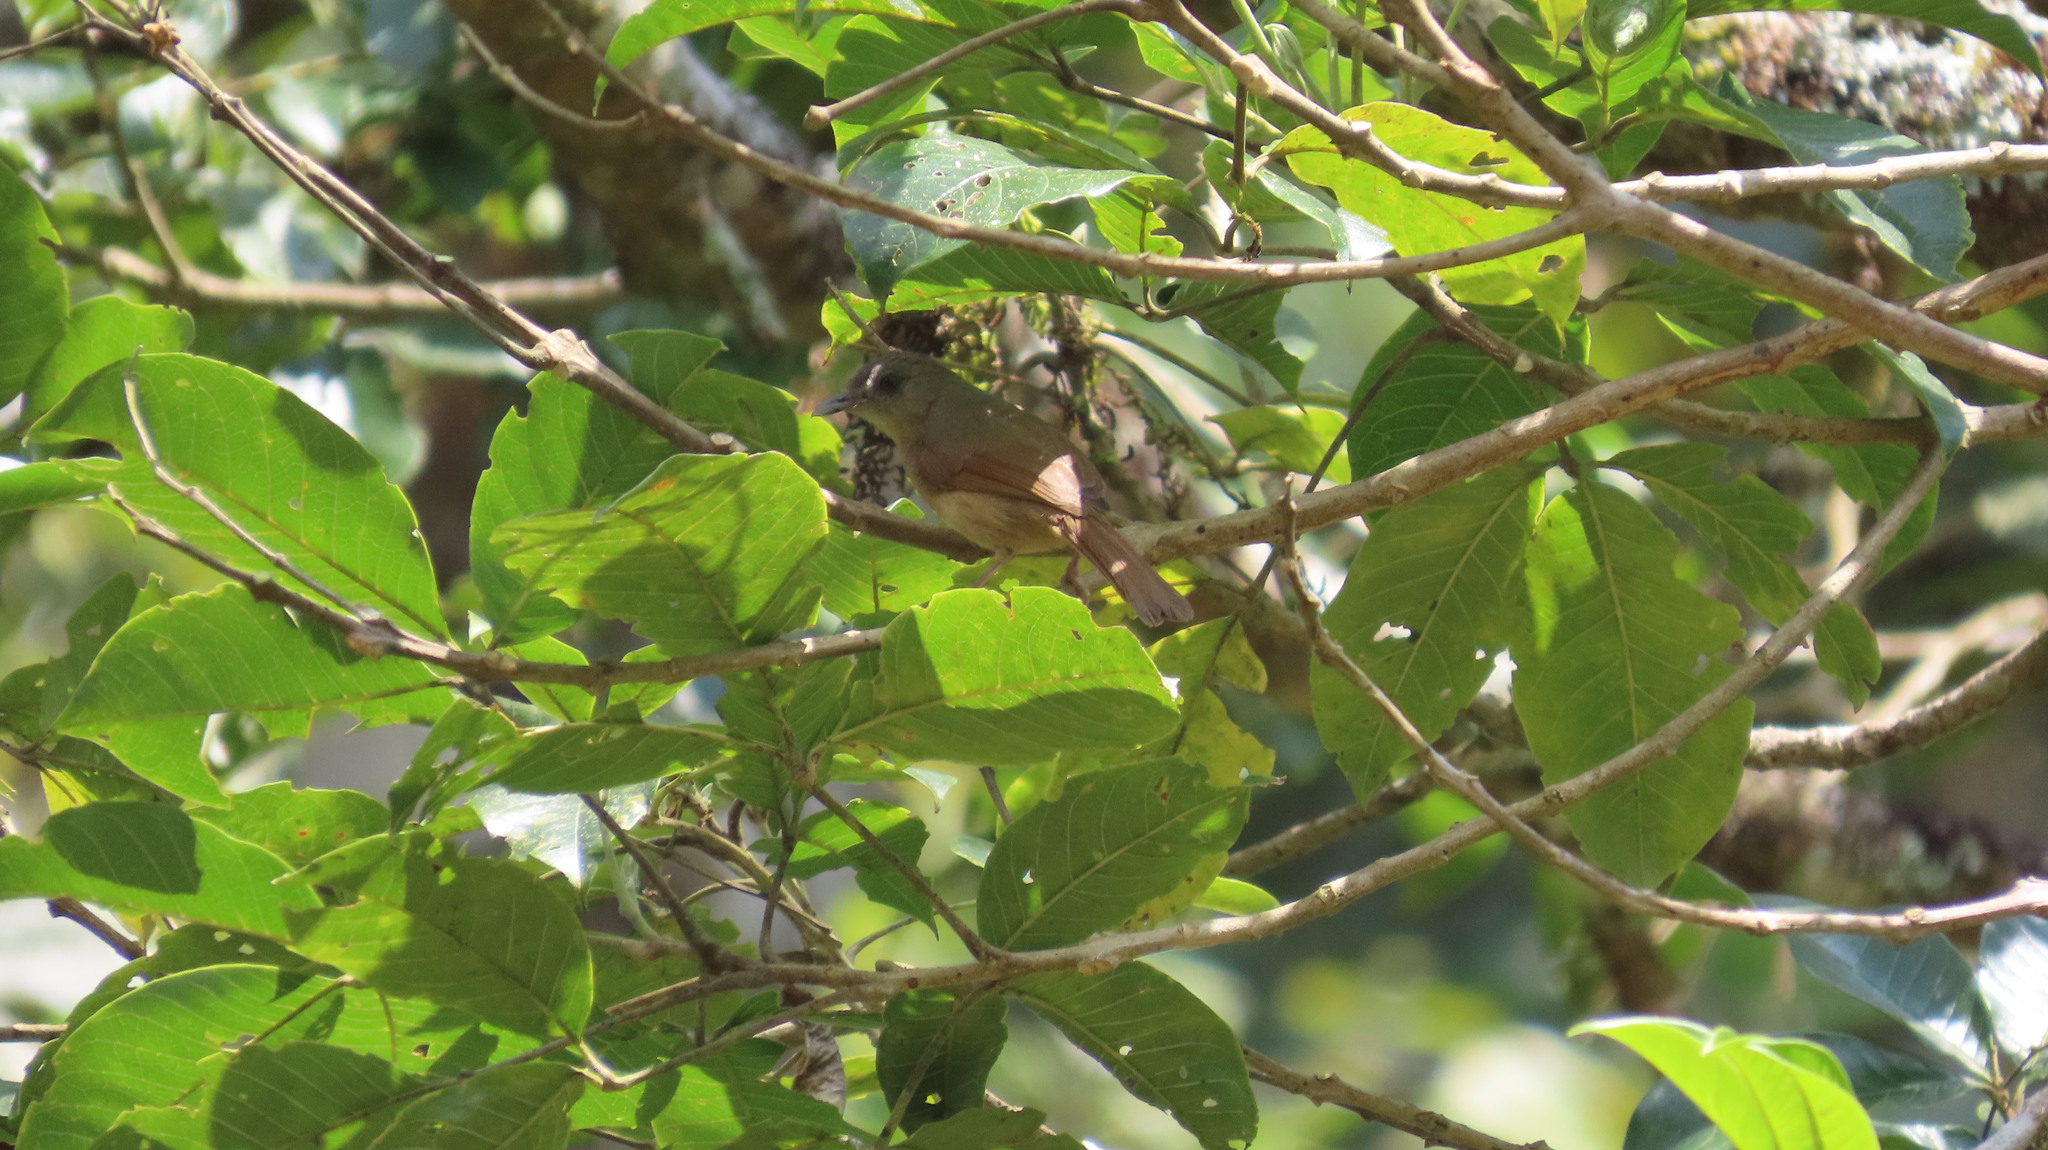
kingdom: Animalia
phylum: Chordata
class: Aves
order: Passeriformes
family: Pellorneidae
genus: Alcippe
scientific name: Alcippe poioicephala
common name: Brown-cheeked fulvetta
